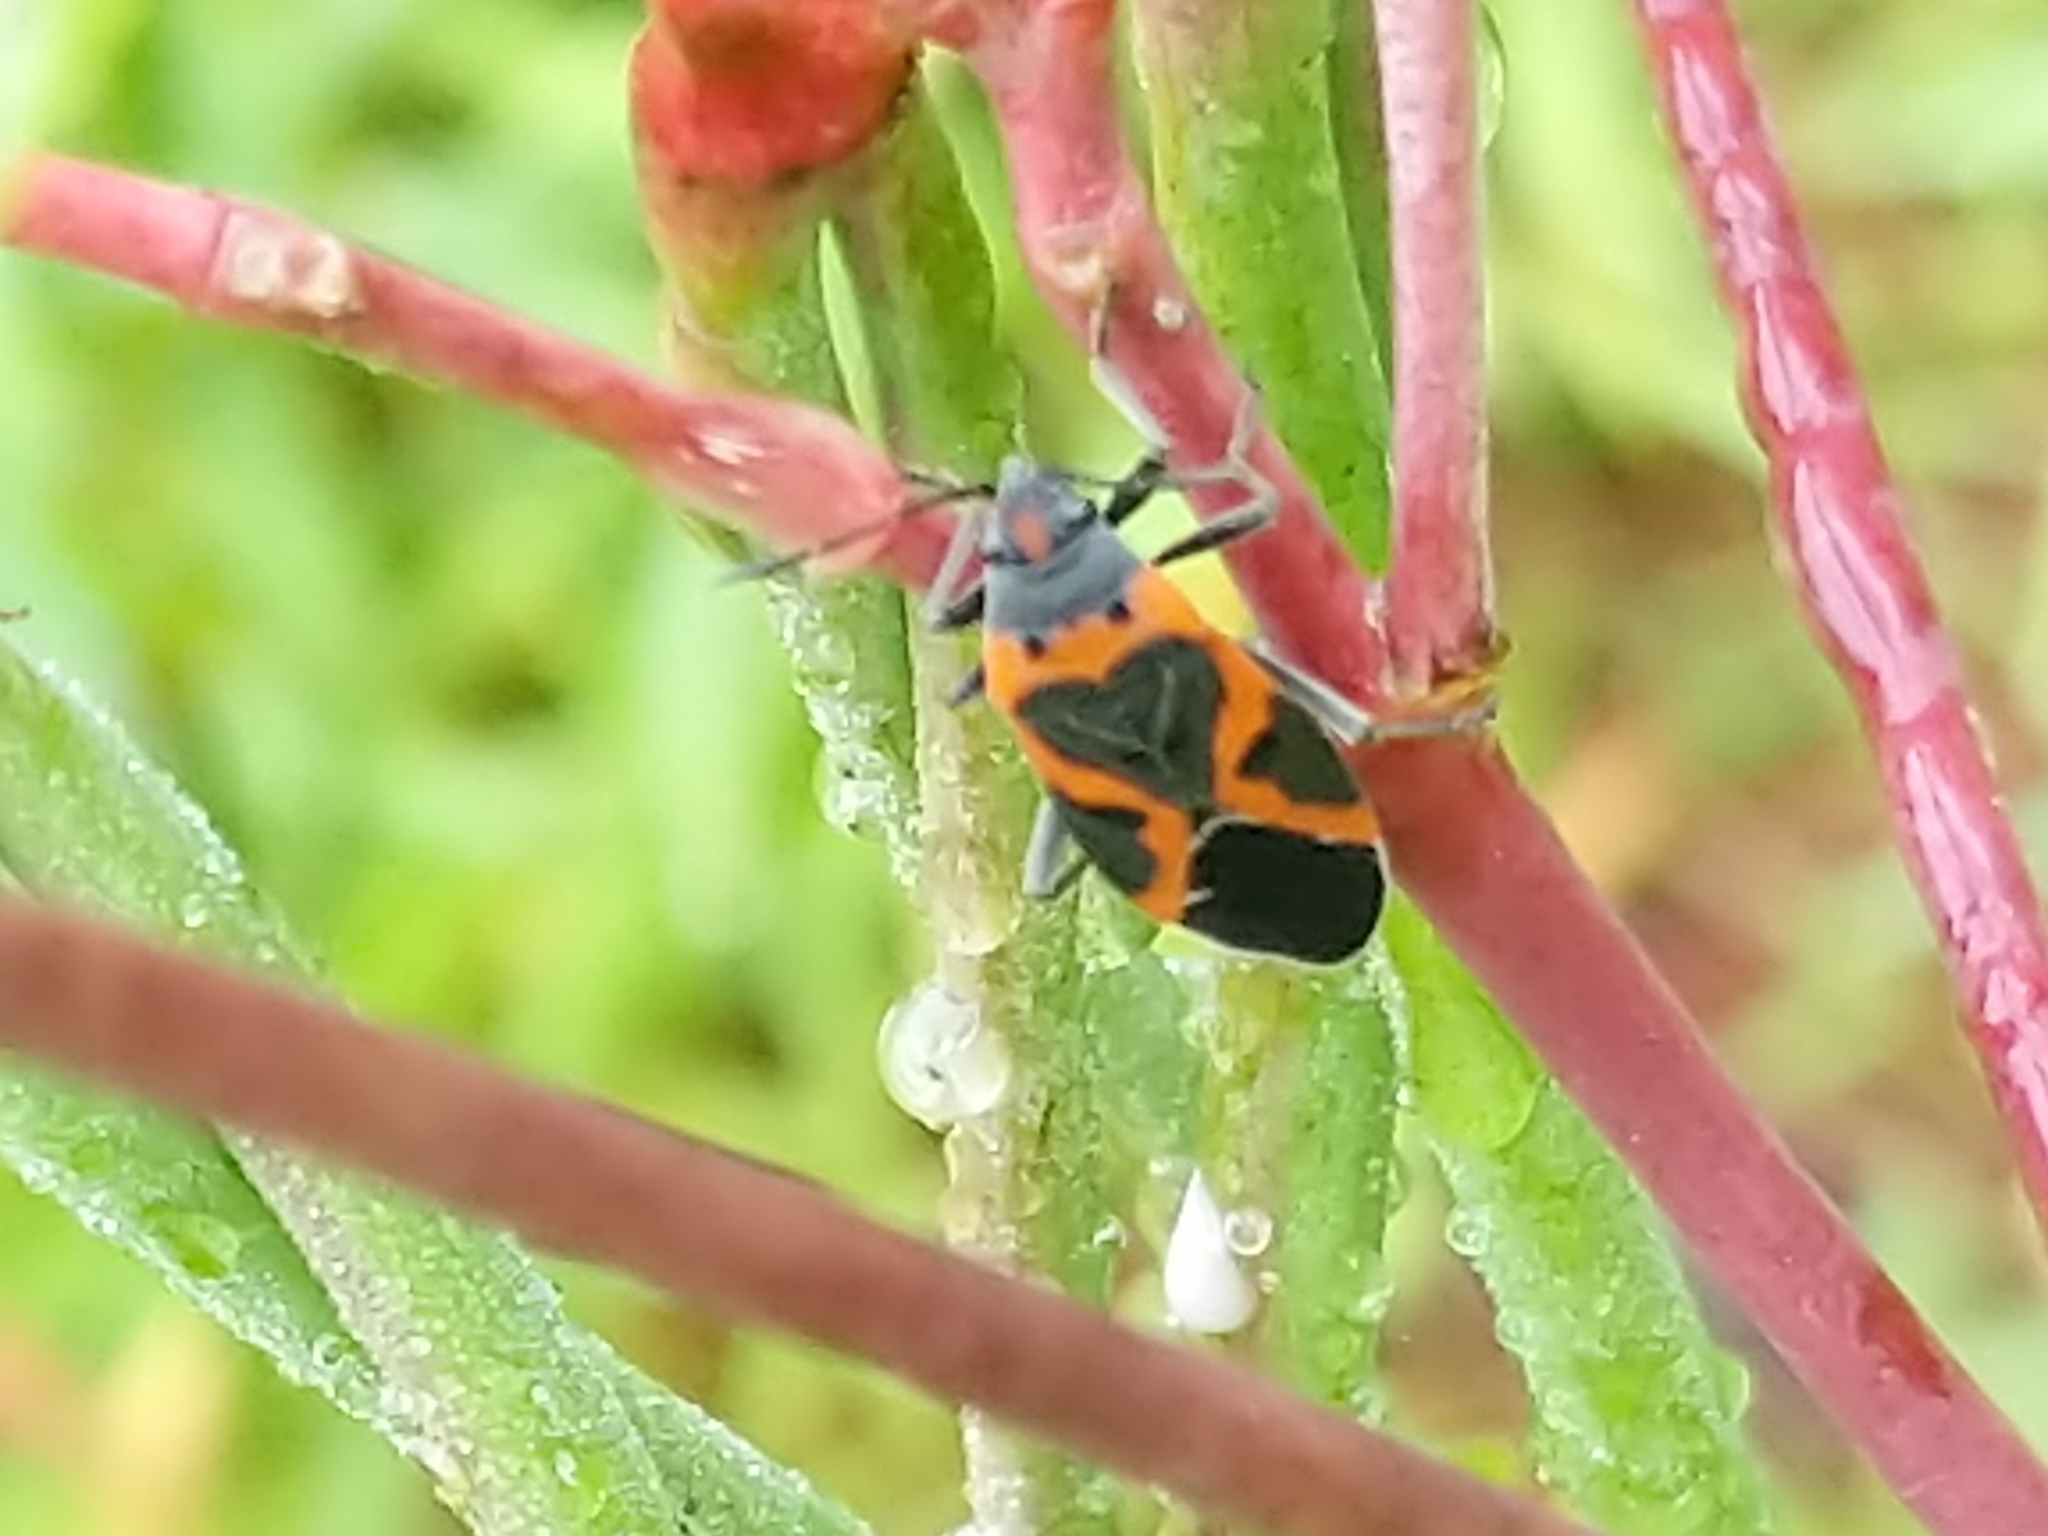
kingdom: Animalia
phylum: Arthropoda
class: Insecta
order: Hemiptera
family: Lygaeidae
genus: Lygaeus
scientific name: Lygaeus kalmii
